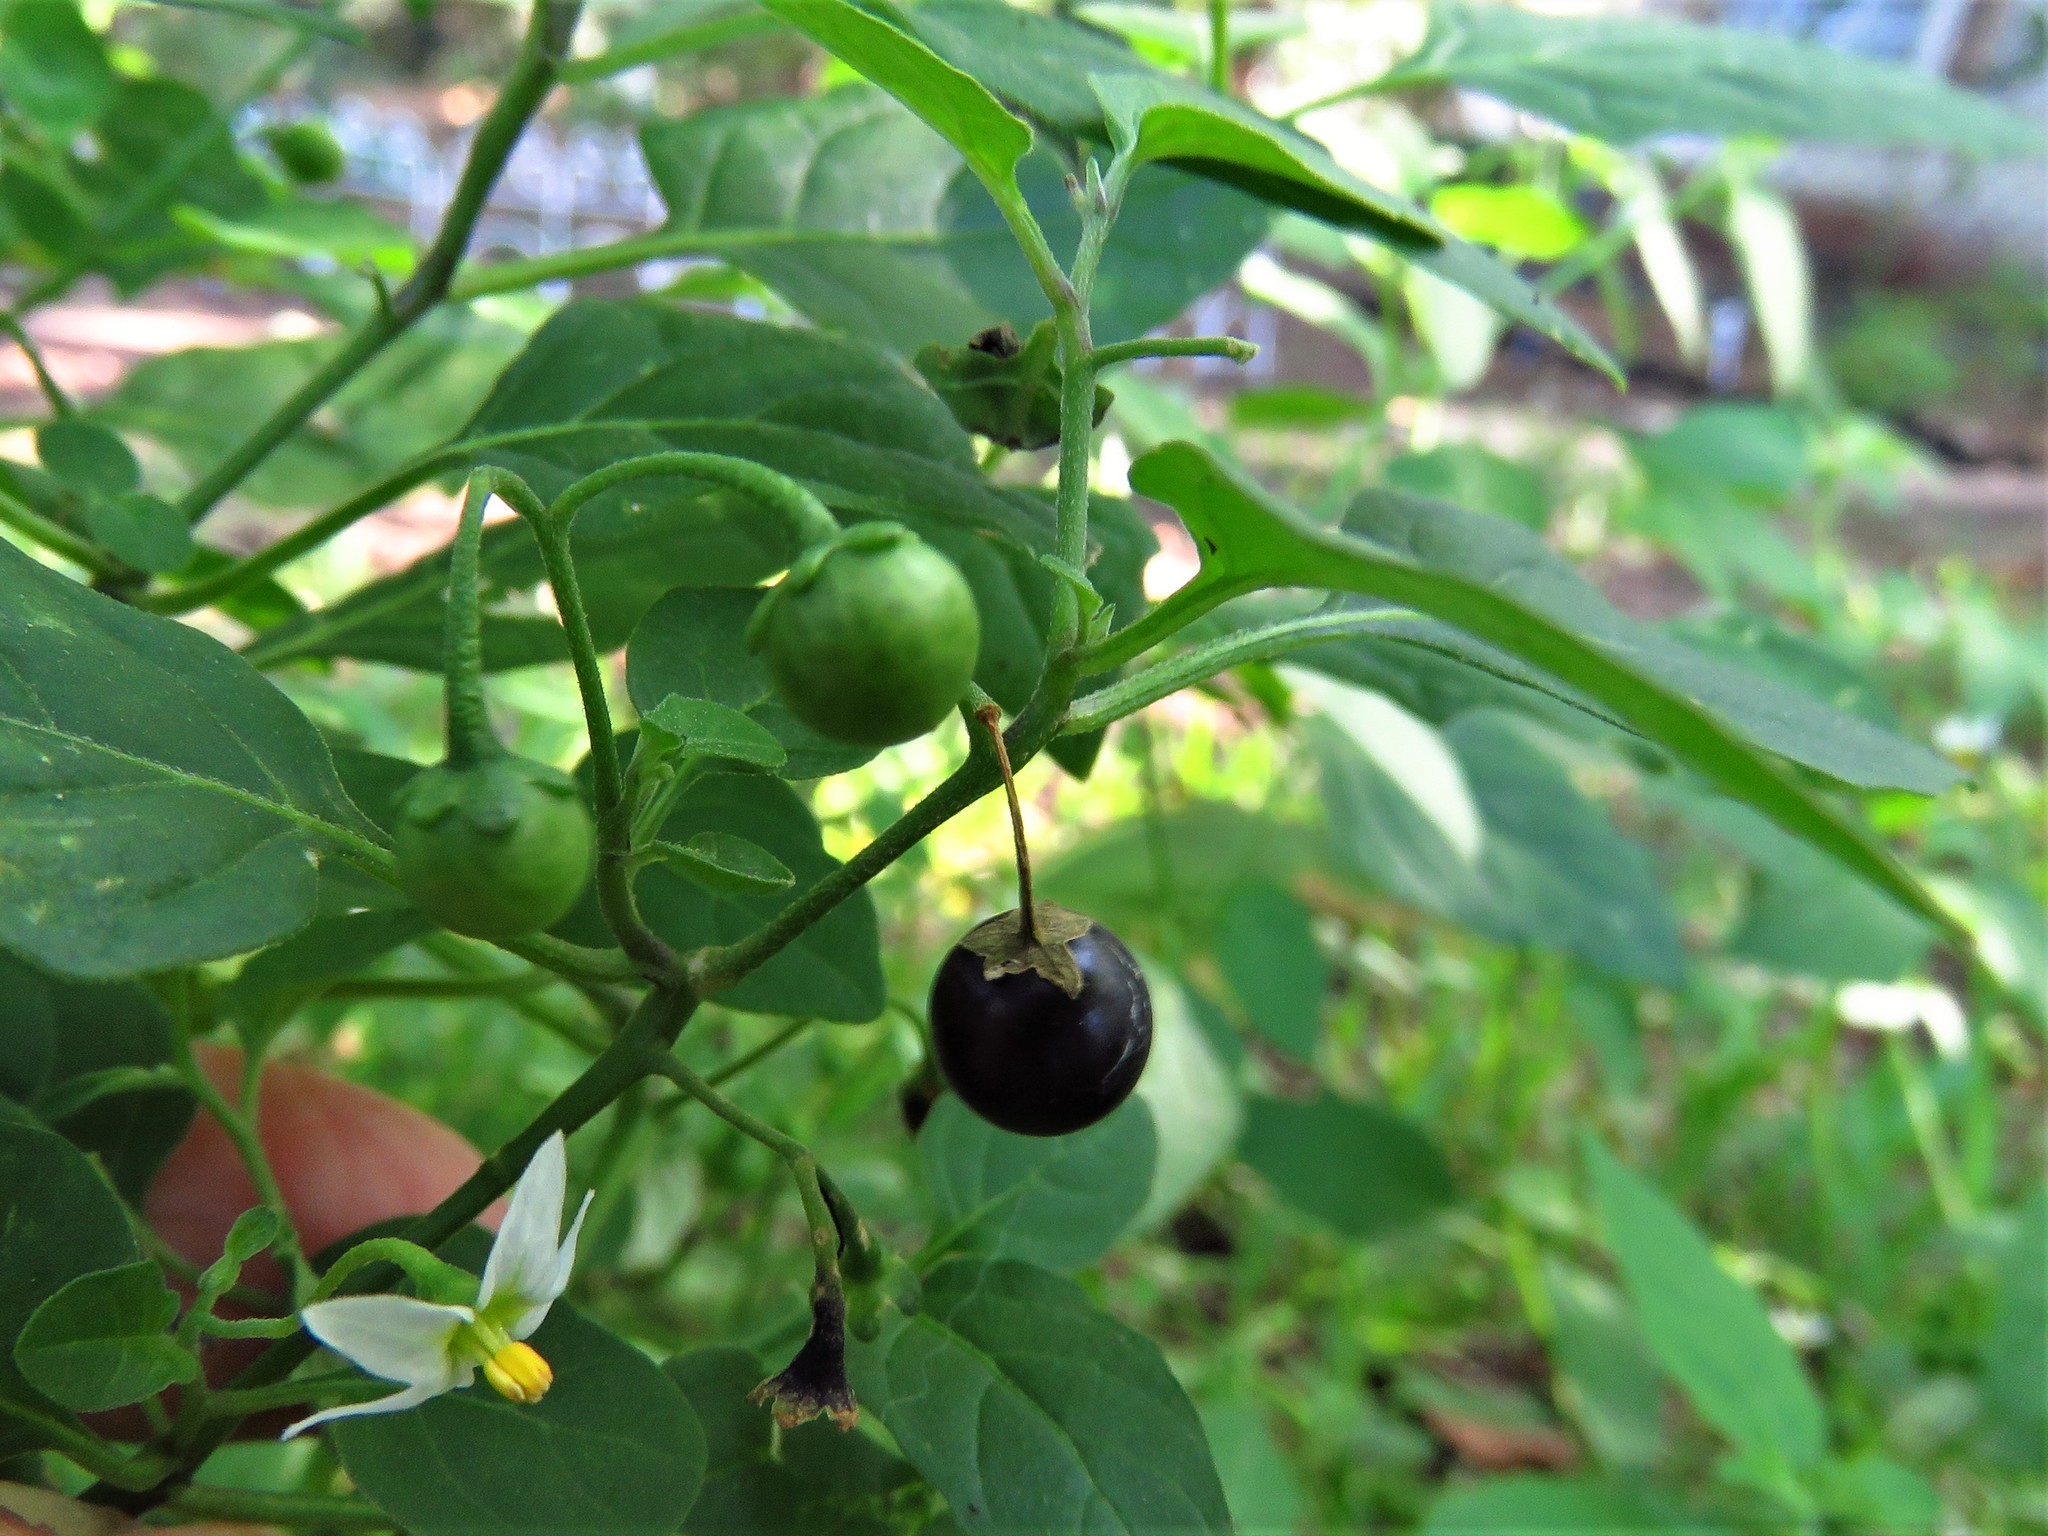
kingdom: Plantae
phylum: Tracheophyta
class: Magnoliopsida
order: Solanales
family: Solanaceae
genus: Solanum
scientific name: Solanum emulans
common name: Eastern black nightshade
